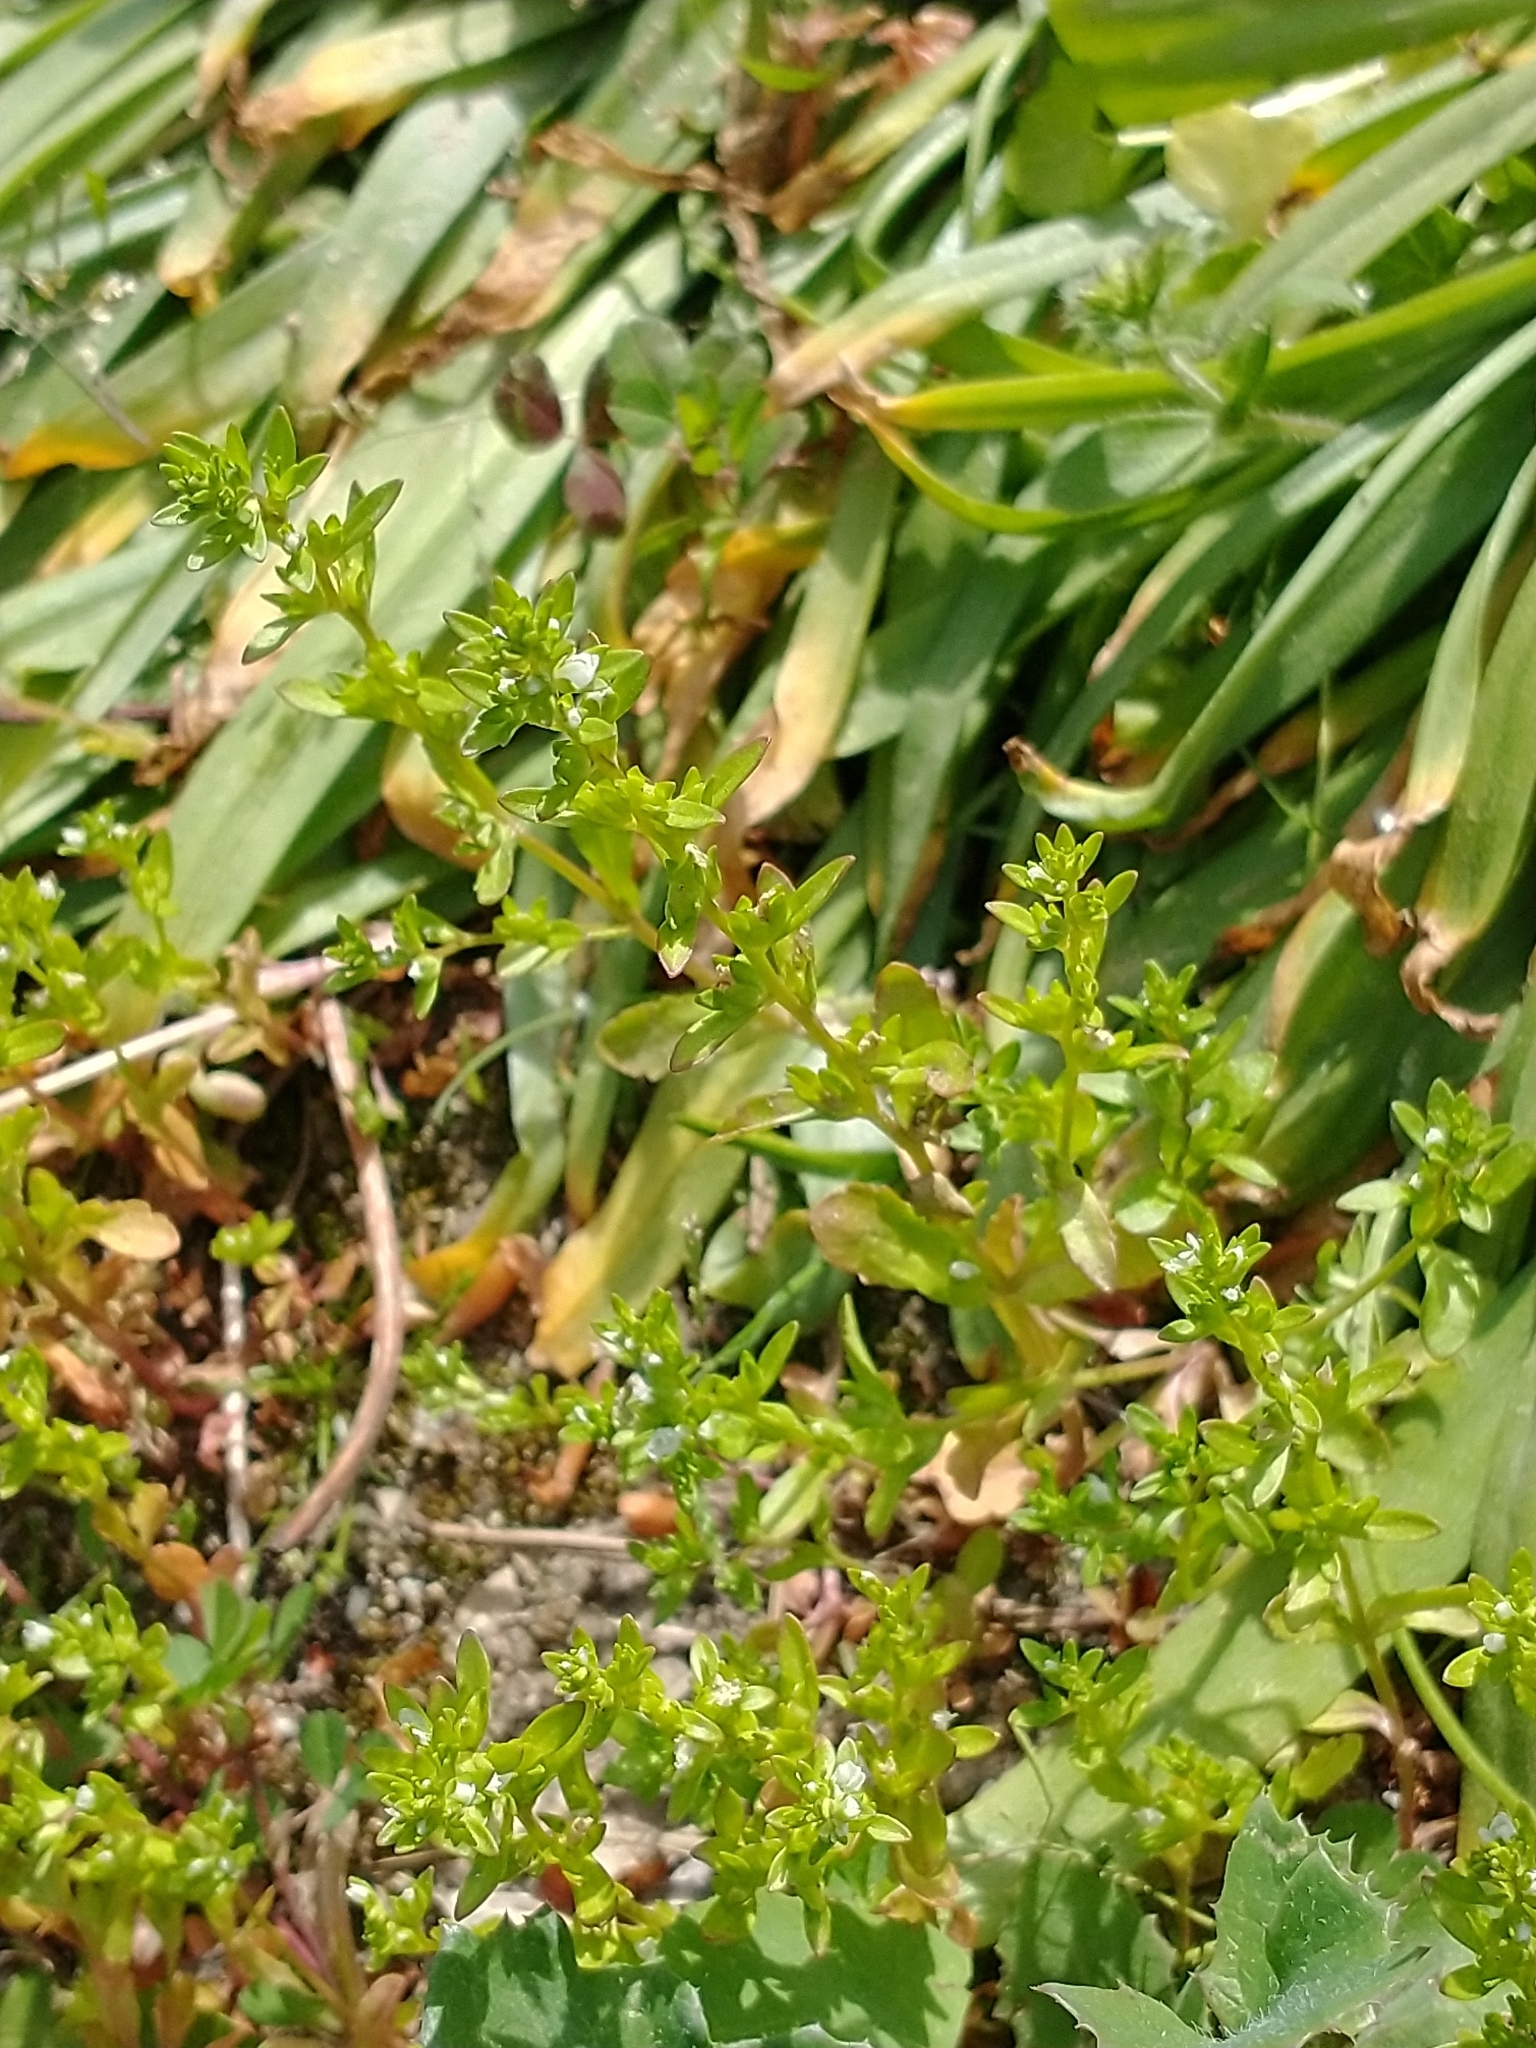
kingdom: Plantae
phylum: Tracheophyta
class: Magnoliopsida
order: Lamiales
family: Plantaginaceae
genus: Veronica
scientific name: Veronica peregrina
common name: Neckweed
